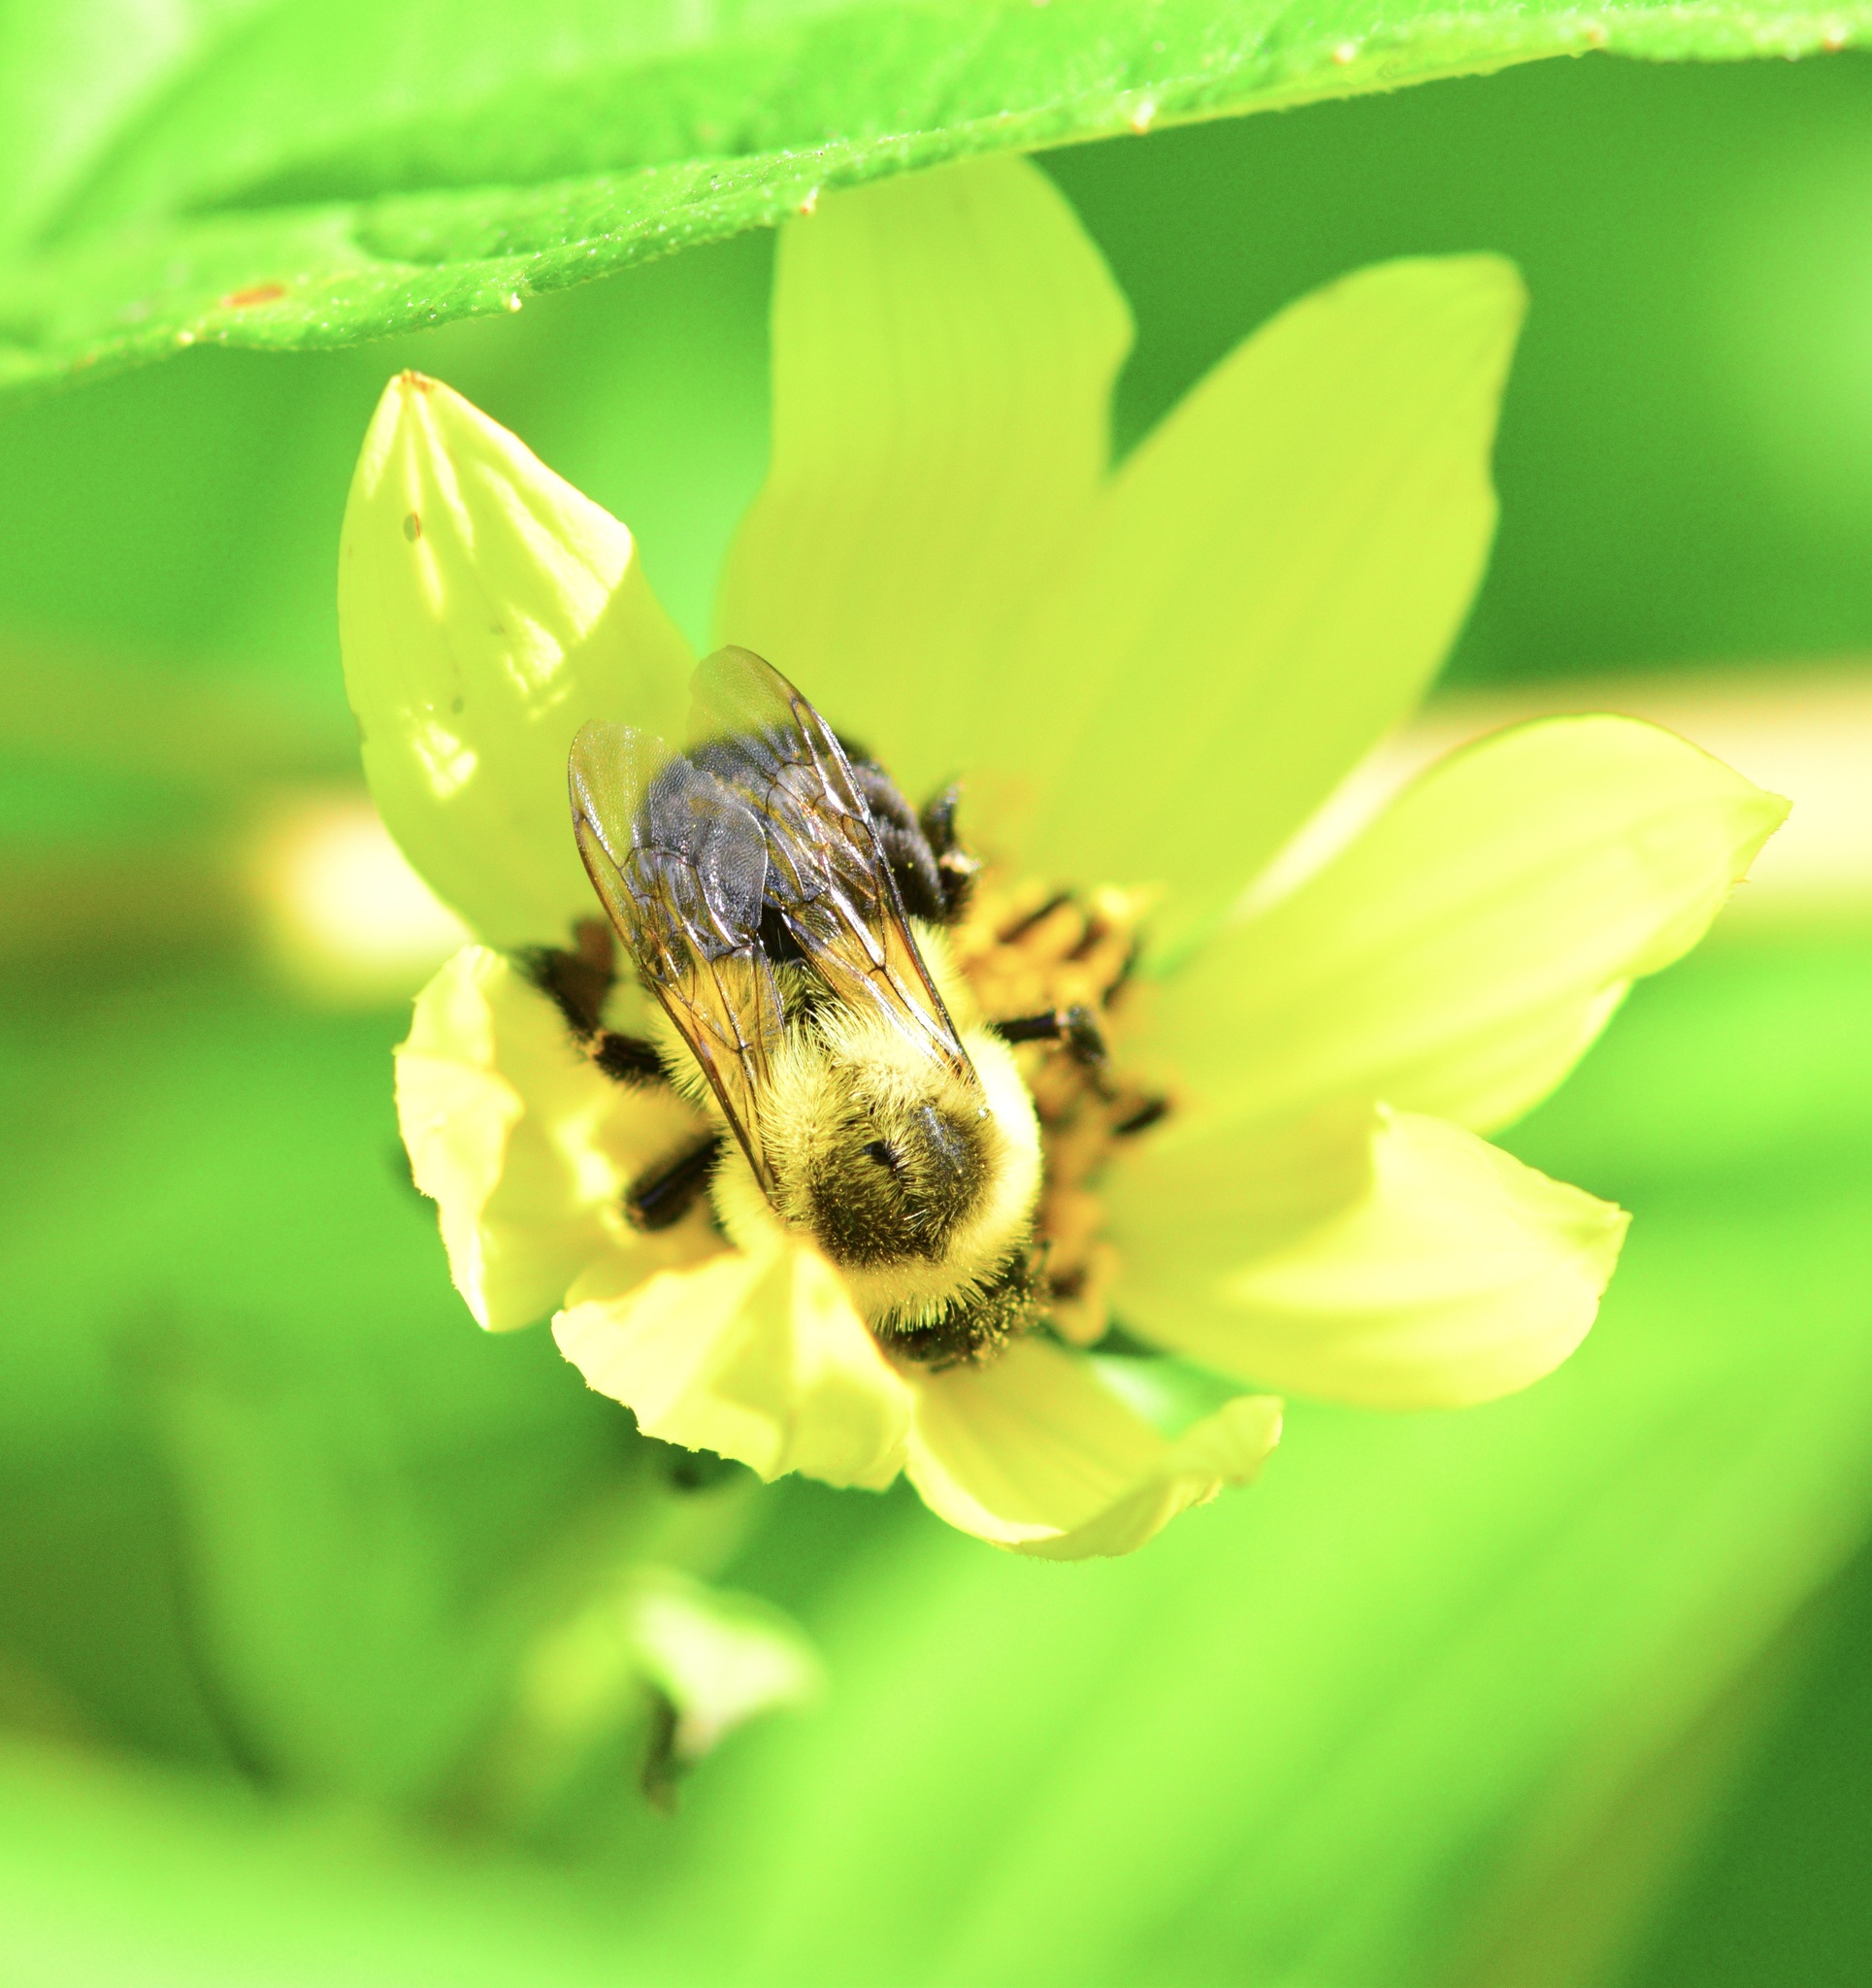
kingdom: Animalia
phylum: Arthropoda
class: Insecta
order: Hymenoptera
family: Apidae
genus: Bombus
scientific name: Bombus impatiens
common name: Common eastern bumble bee
